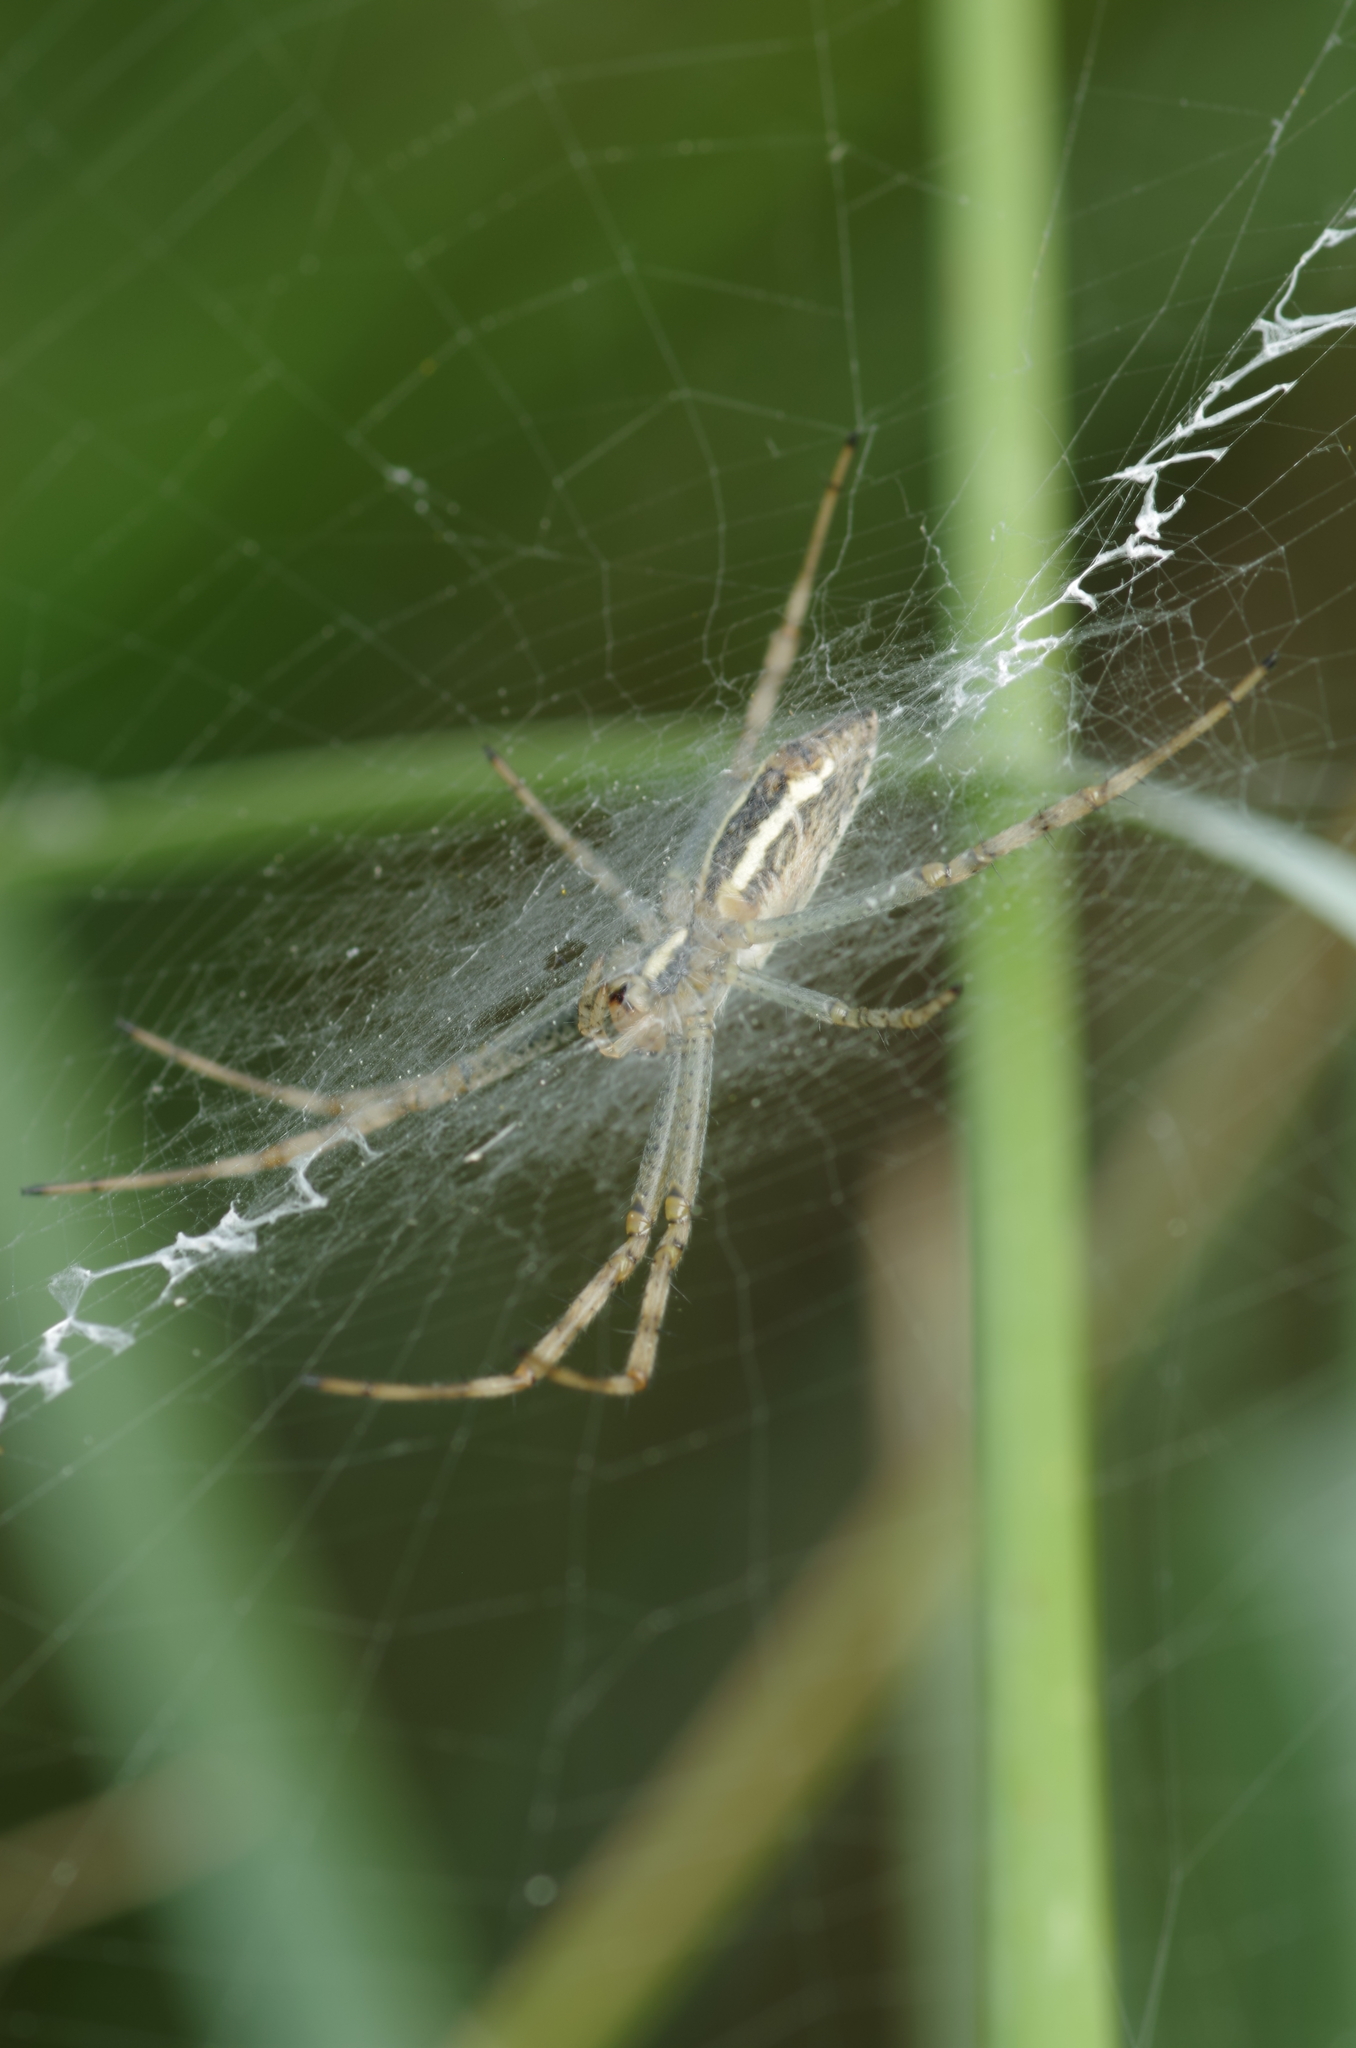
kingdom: Animalia
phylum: Arthropoda
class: Arachnida
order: Araneae
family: Araneidae
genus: Argiope
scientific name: Argiope bruennichi
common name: Wasp spider
